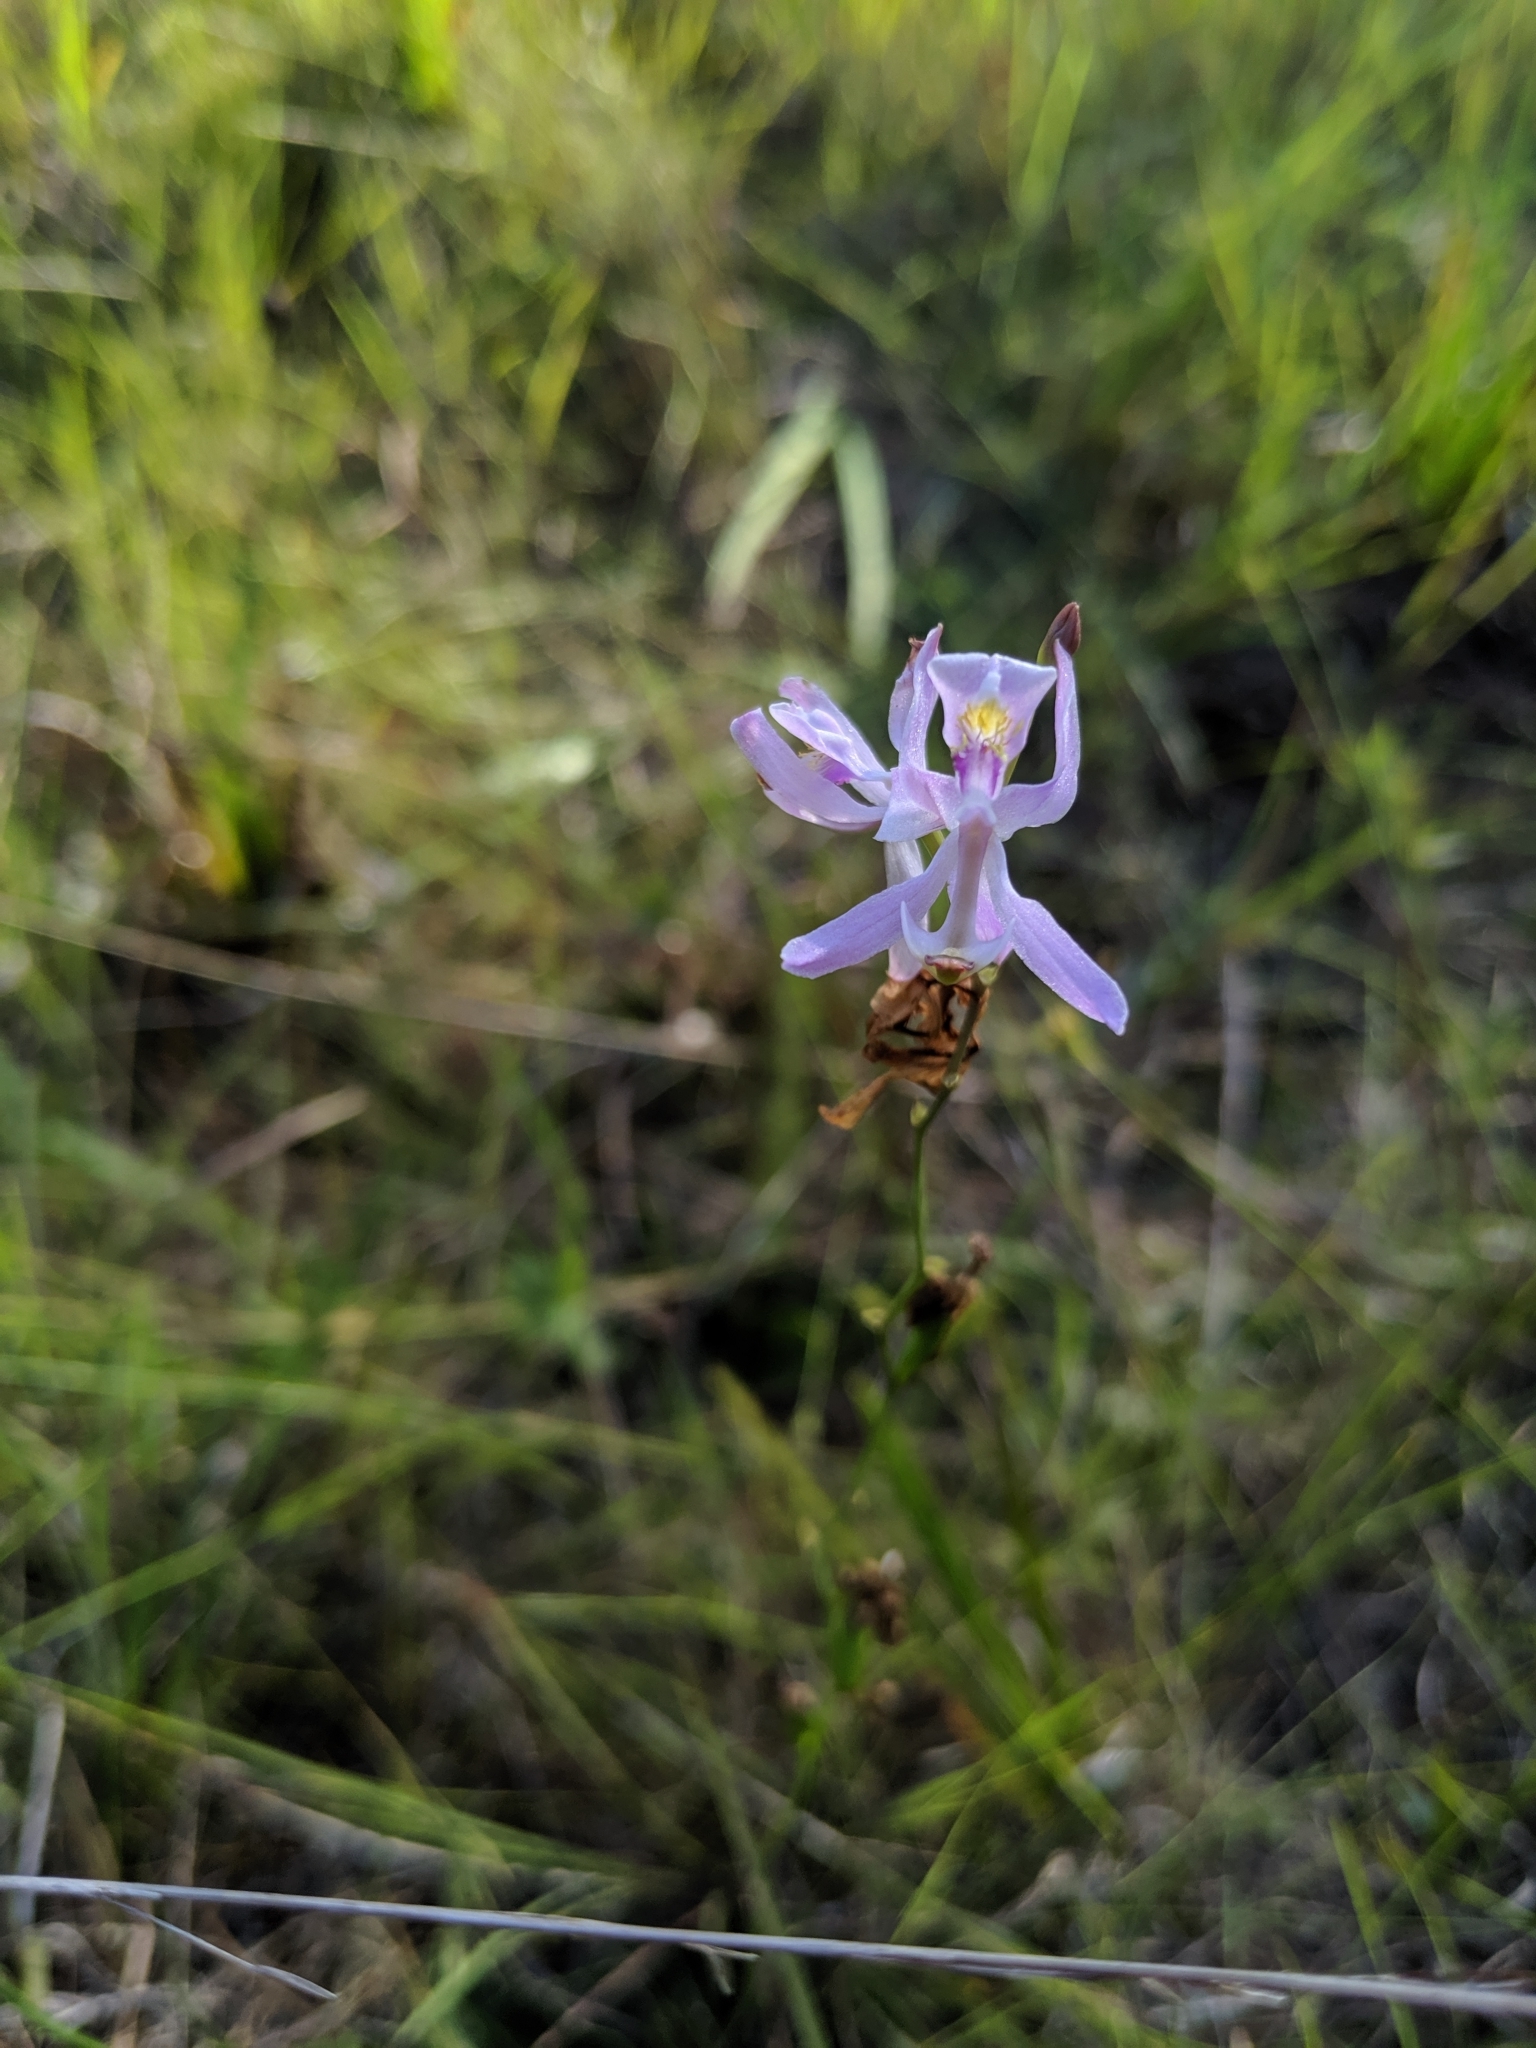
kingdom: Plantae
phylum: Tracheophyta
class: Liliopsida
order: Asparagales
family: Orchidaceae
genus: Calopogon
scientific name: Calopogon pallidus
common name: Pale grasspink
